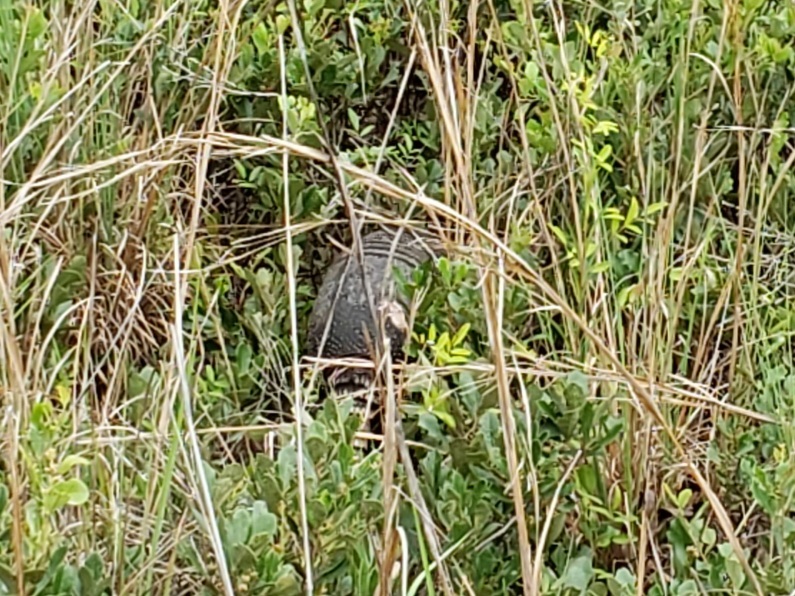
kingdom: Animalia
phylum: Chordata
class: Mammalia
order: Cingulata
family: Dasypodidae
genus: Dasypus
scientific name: Dasypus novemcinctus
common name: Nine-banded armadillo
